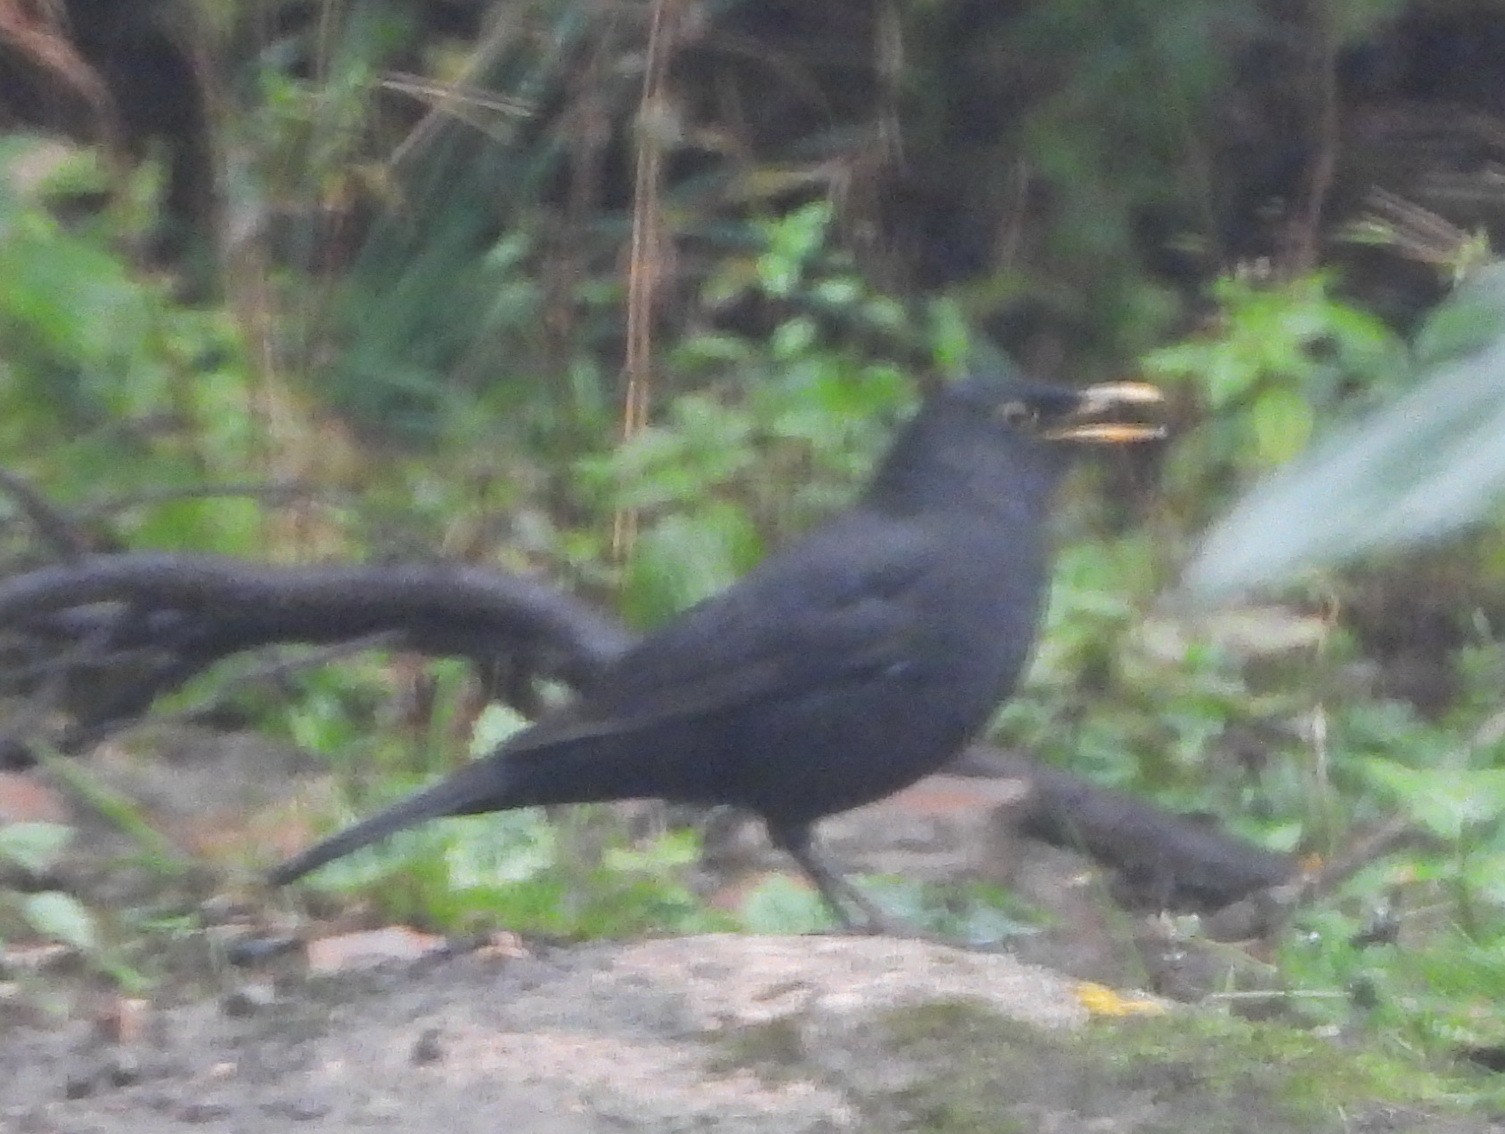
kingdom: Animalia
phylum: Chordata
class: Aves
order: Passeriformes
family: Turdidae
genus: Turdus
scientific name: Turdus merula
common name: Common blackbird
